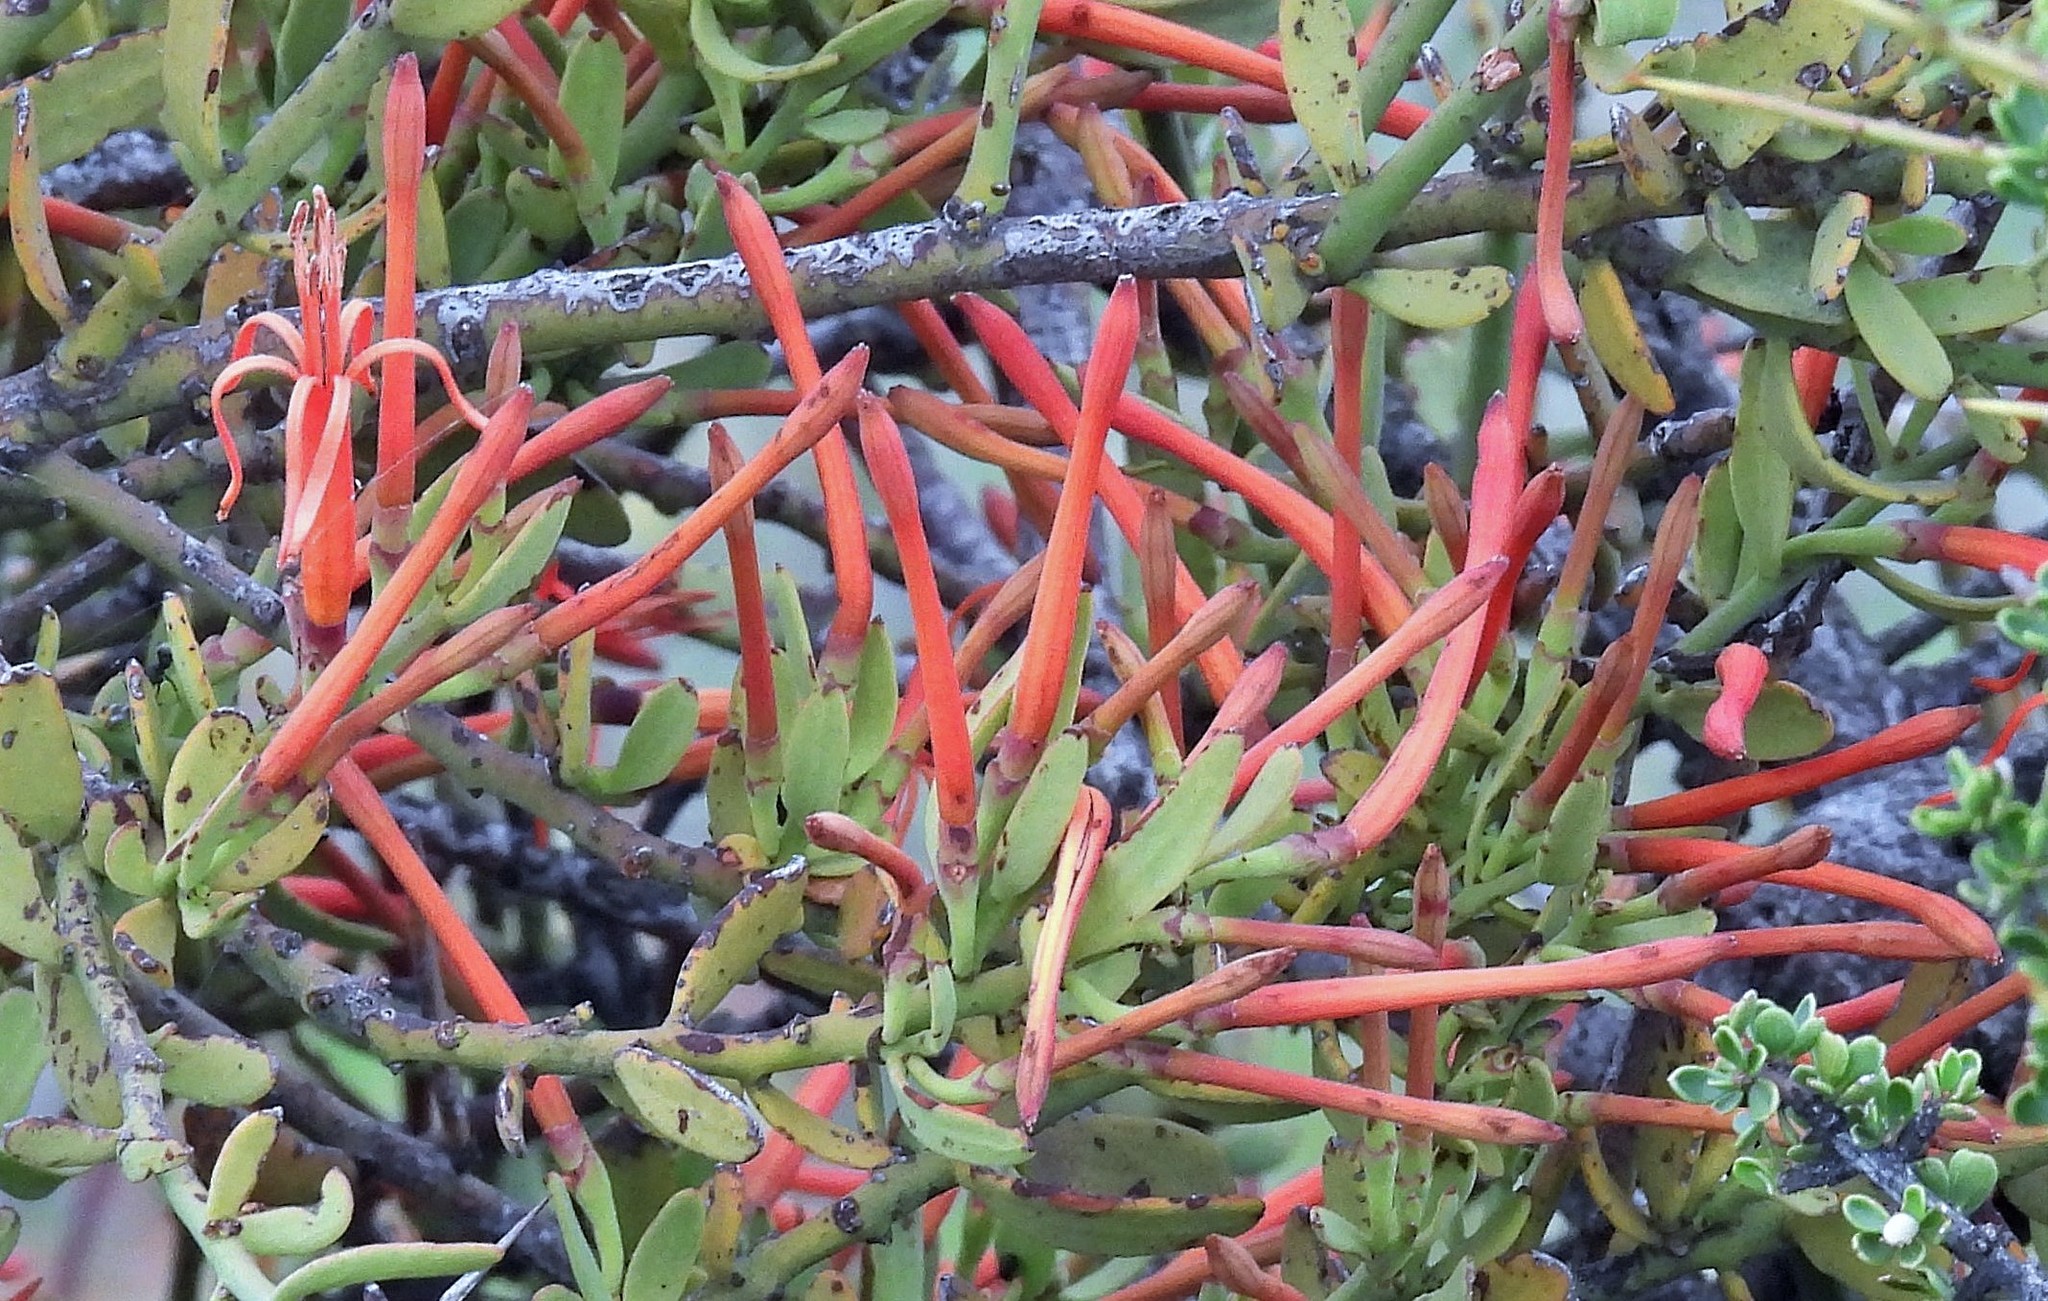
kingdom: Plantae
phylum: Tracheophyta
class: Magnoliopsida
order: Santalales
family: Loranthaceae
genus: Ligaria
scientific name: Ligaria cuneifolia
